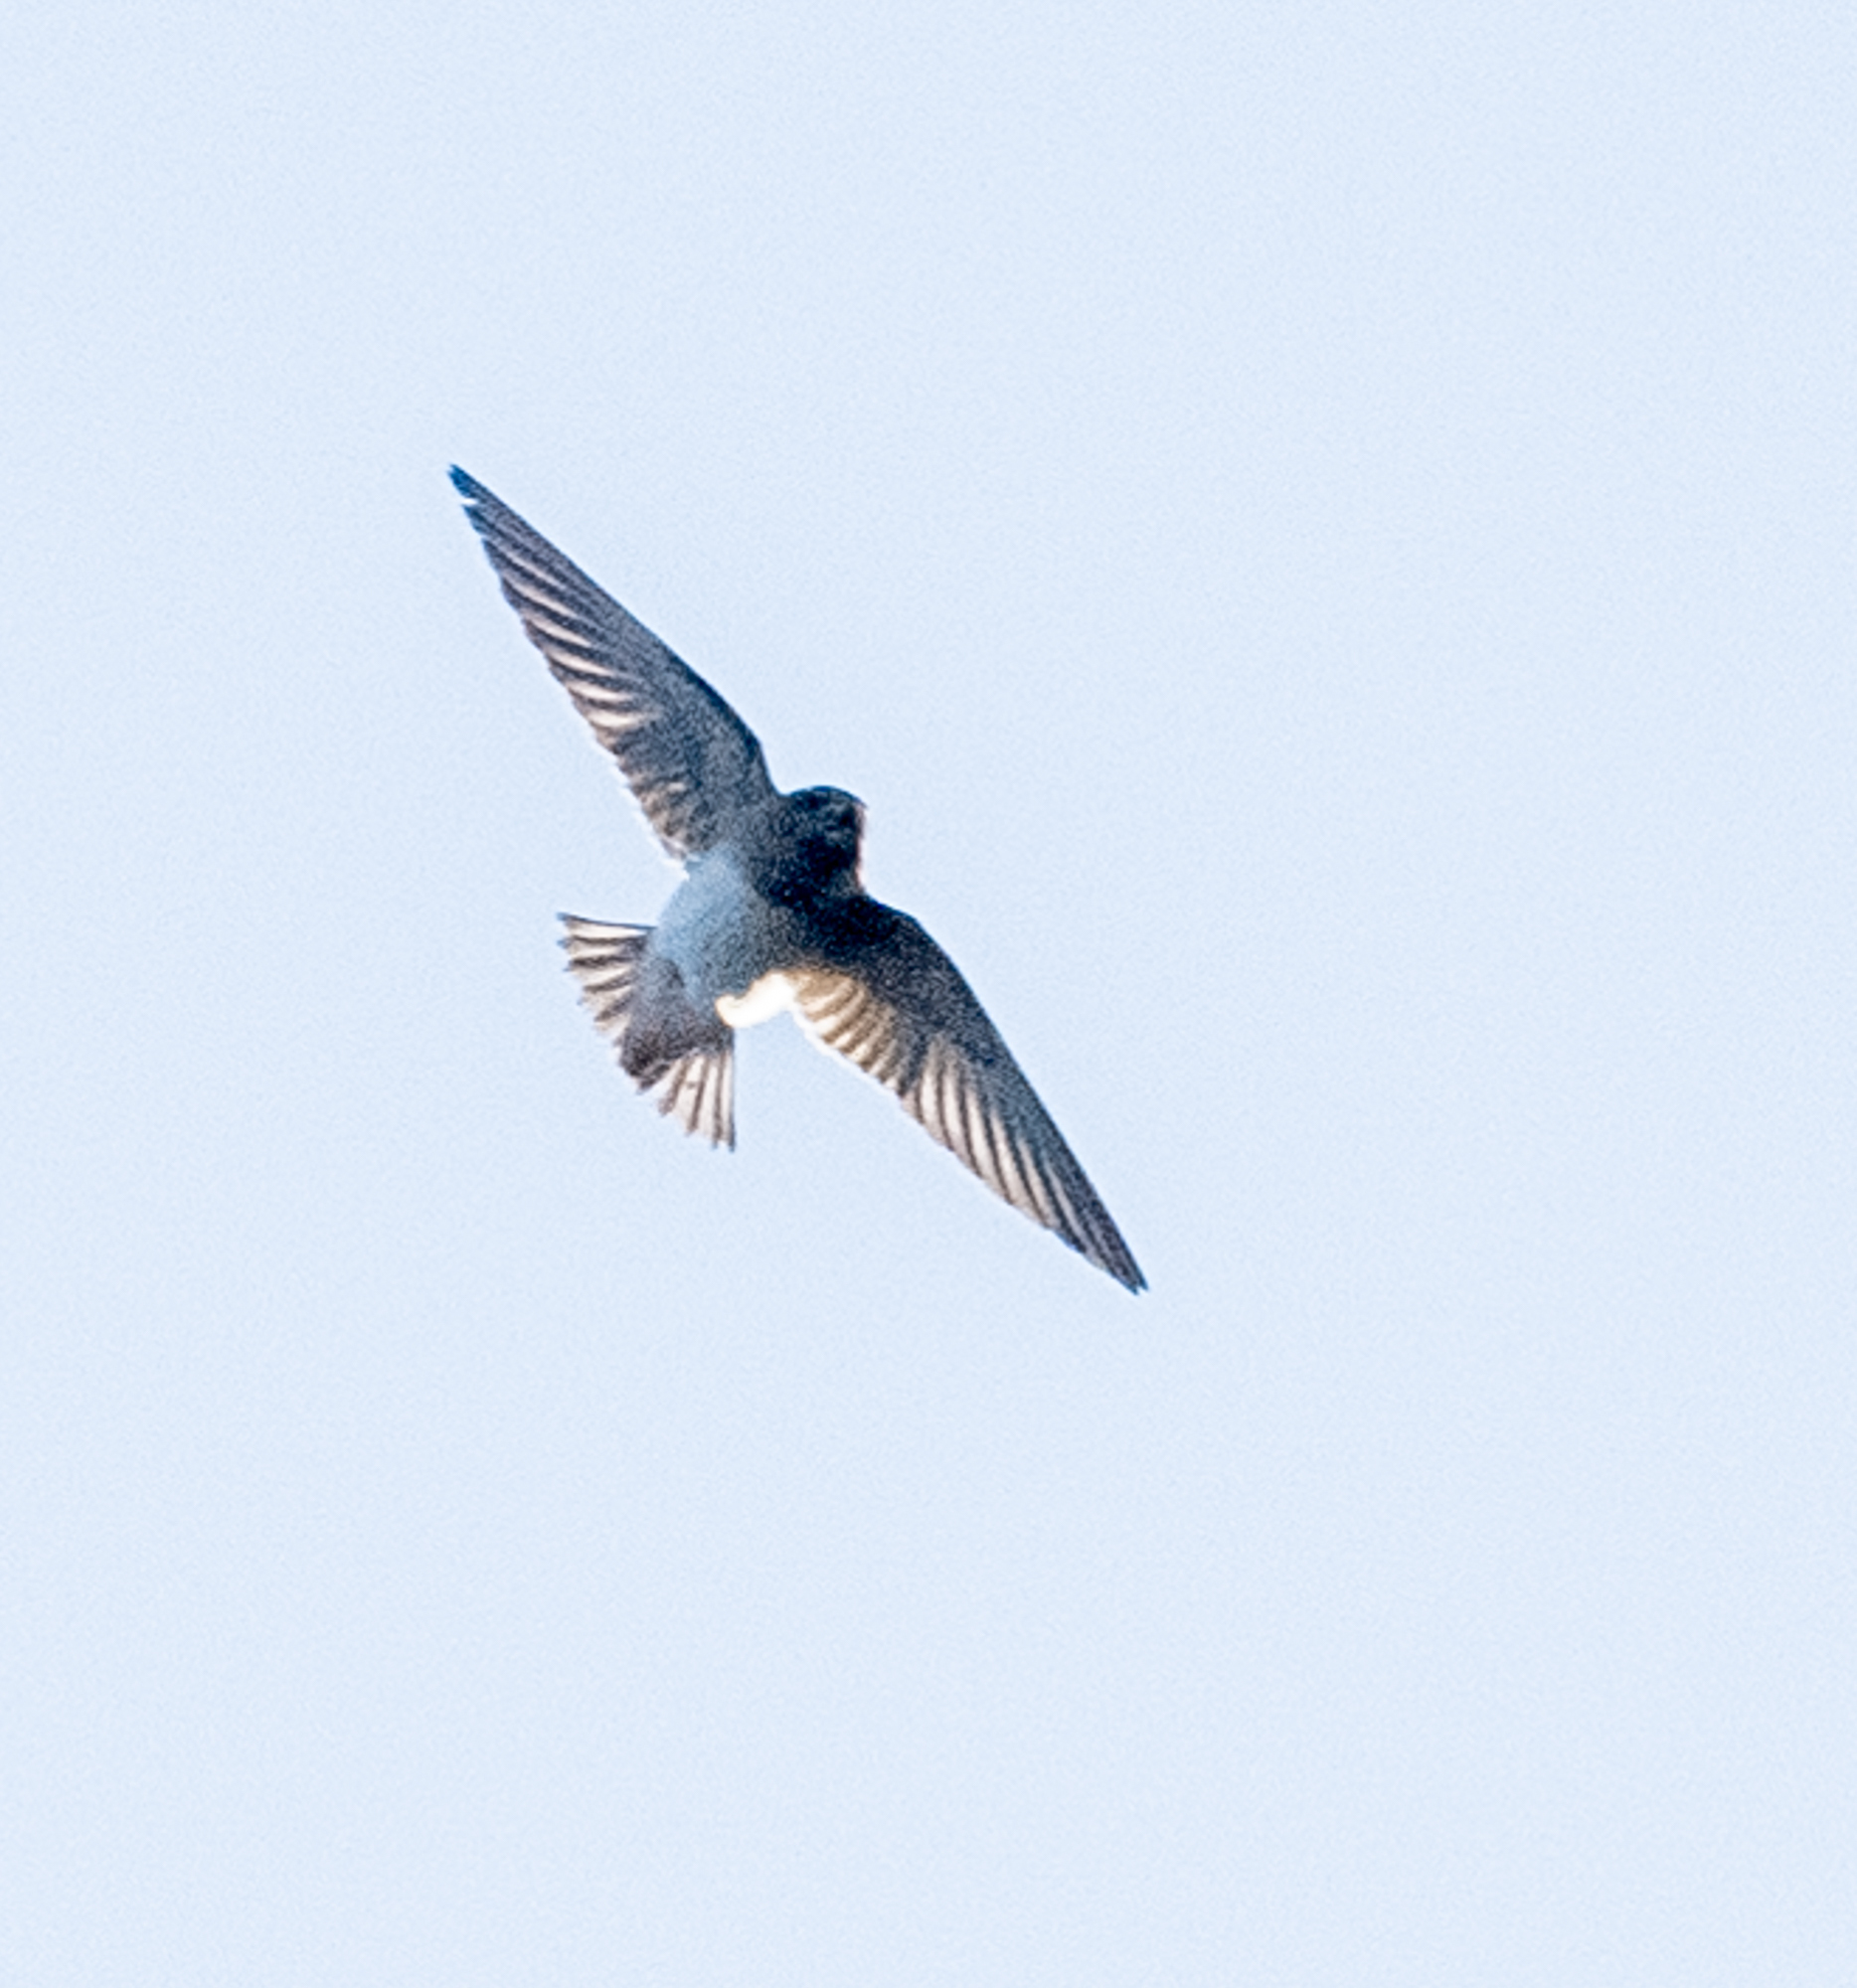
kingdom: Animalia
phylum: Chordata
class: Aves
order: Passeriformes
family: Hirundinidae
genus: Petrochelidon
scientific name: Petrochelidon pyrrhonota
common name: American cliff swallow
